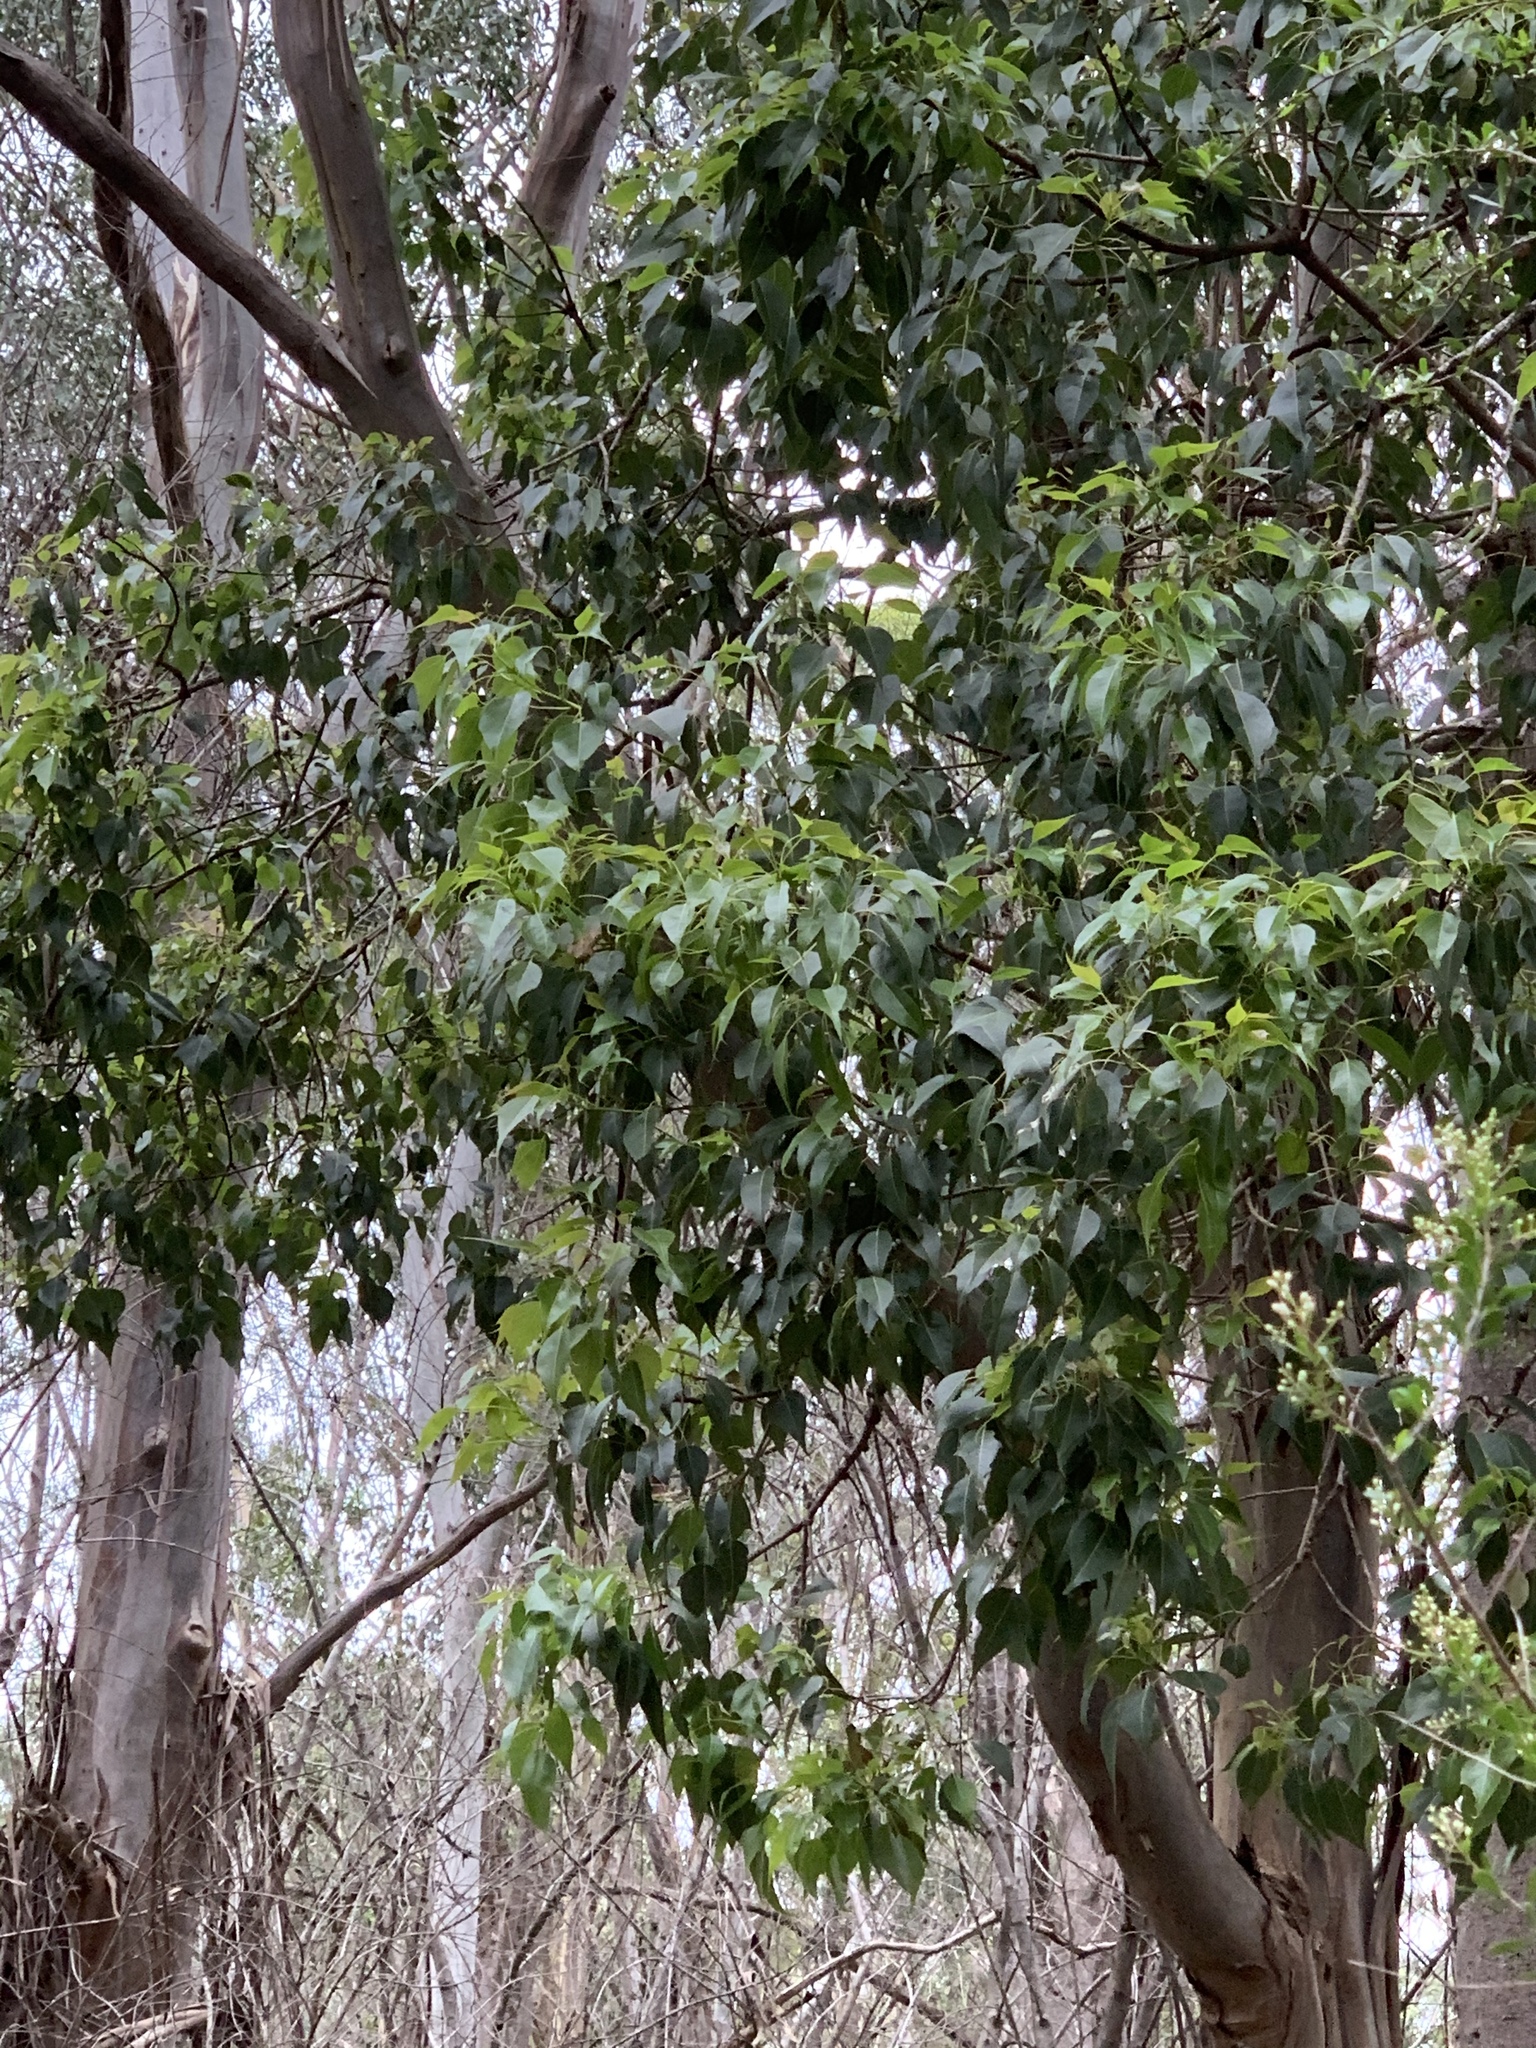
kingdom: Plantae
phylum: Tracheophyta
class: Magnoliopsida
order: Malvales
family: Malvaceae
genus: Brachychiton
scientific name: Brachychiton populneus
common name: Kurrajong
